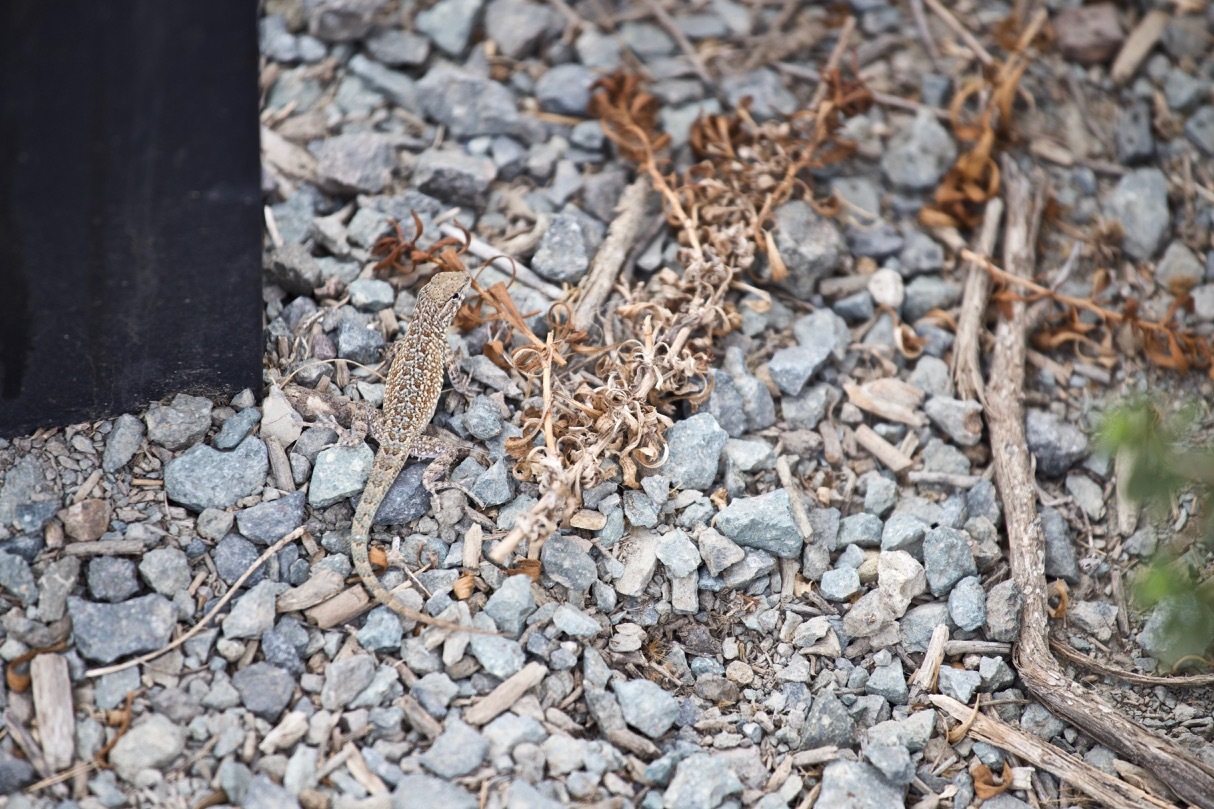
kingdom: Animalia
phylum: Chordata
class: Squamata
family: Phrynosomatidae
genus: Uta
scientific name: Uta stansburiana
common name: Side-blotched lizard
